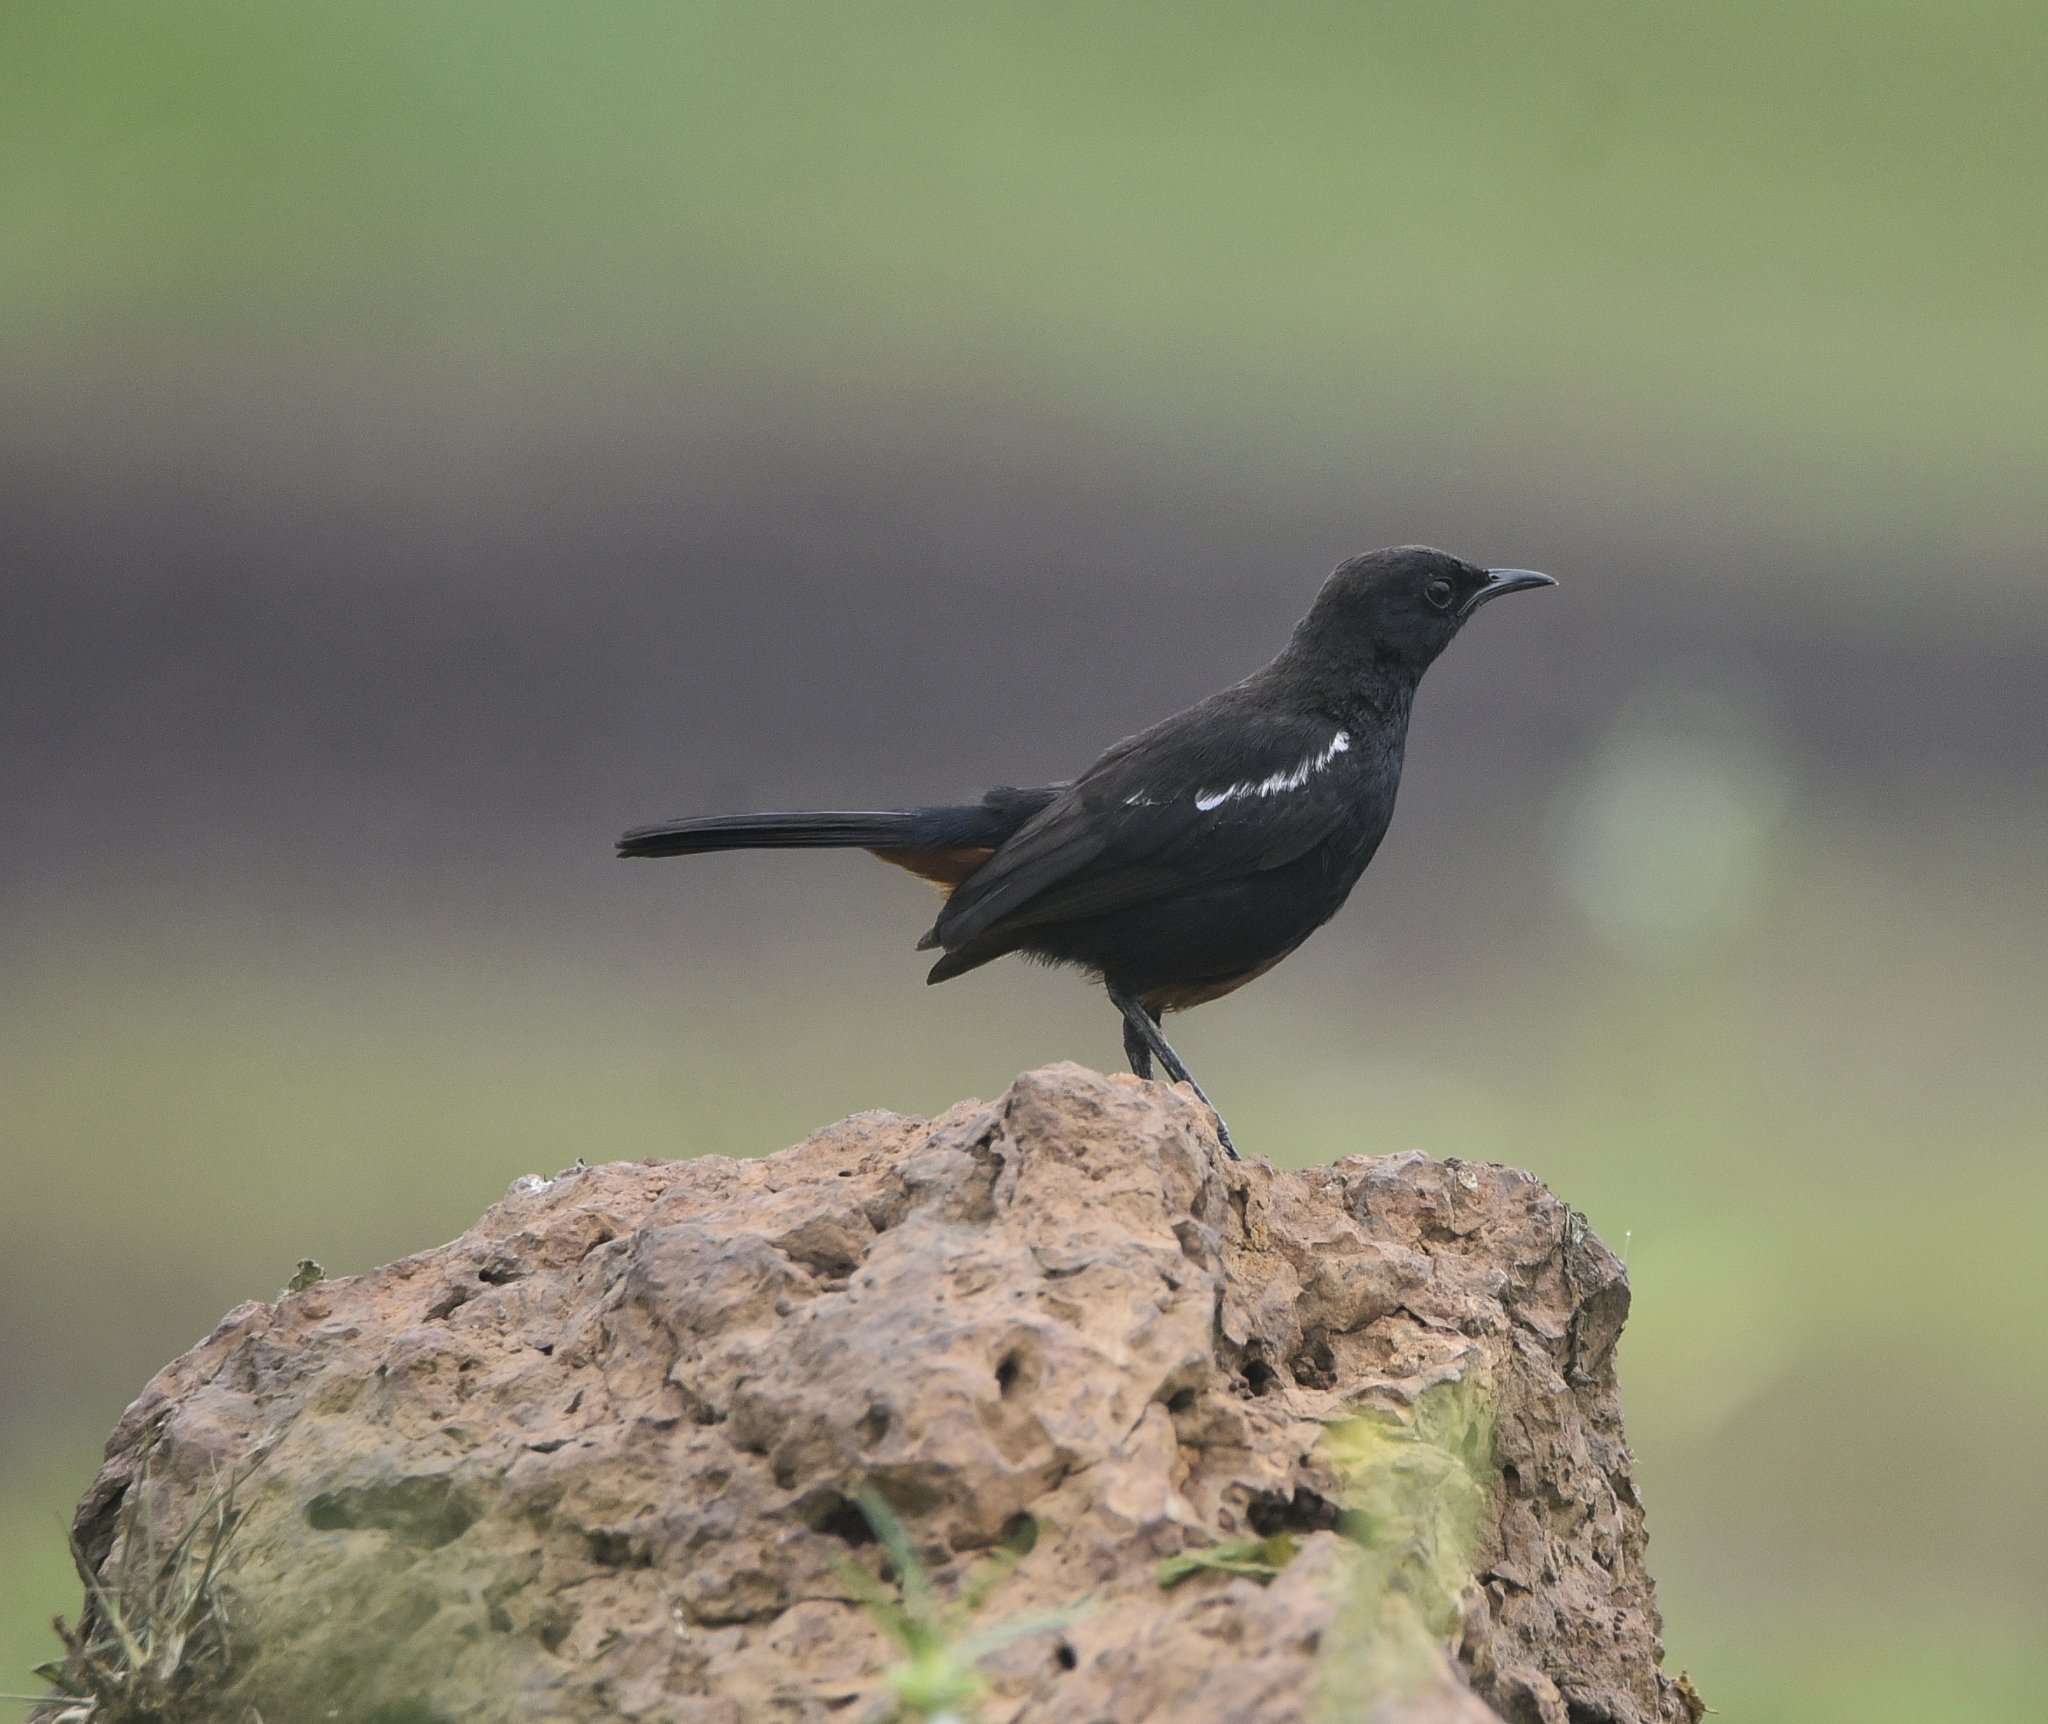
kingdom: Animalia
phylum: Chordata
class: Aves
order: Passeriformes
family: Muscicapidae
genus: Saxicoloides
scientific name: Saxicoloides fulicatus
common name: Indian robin
